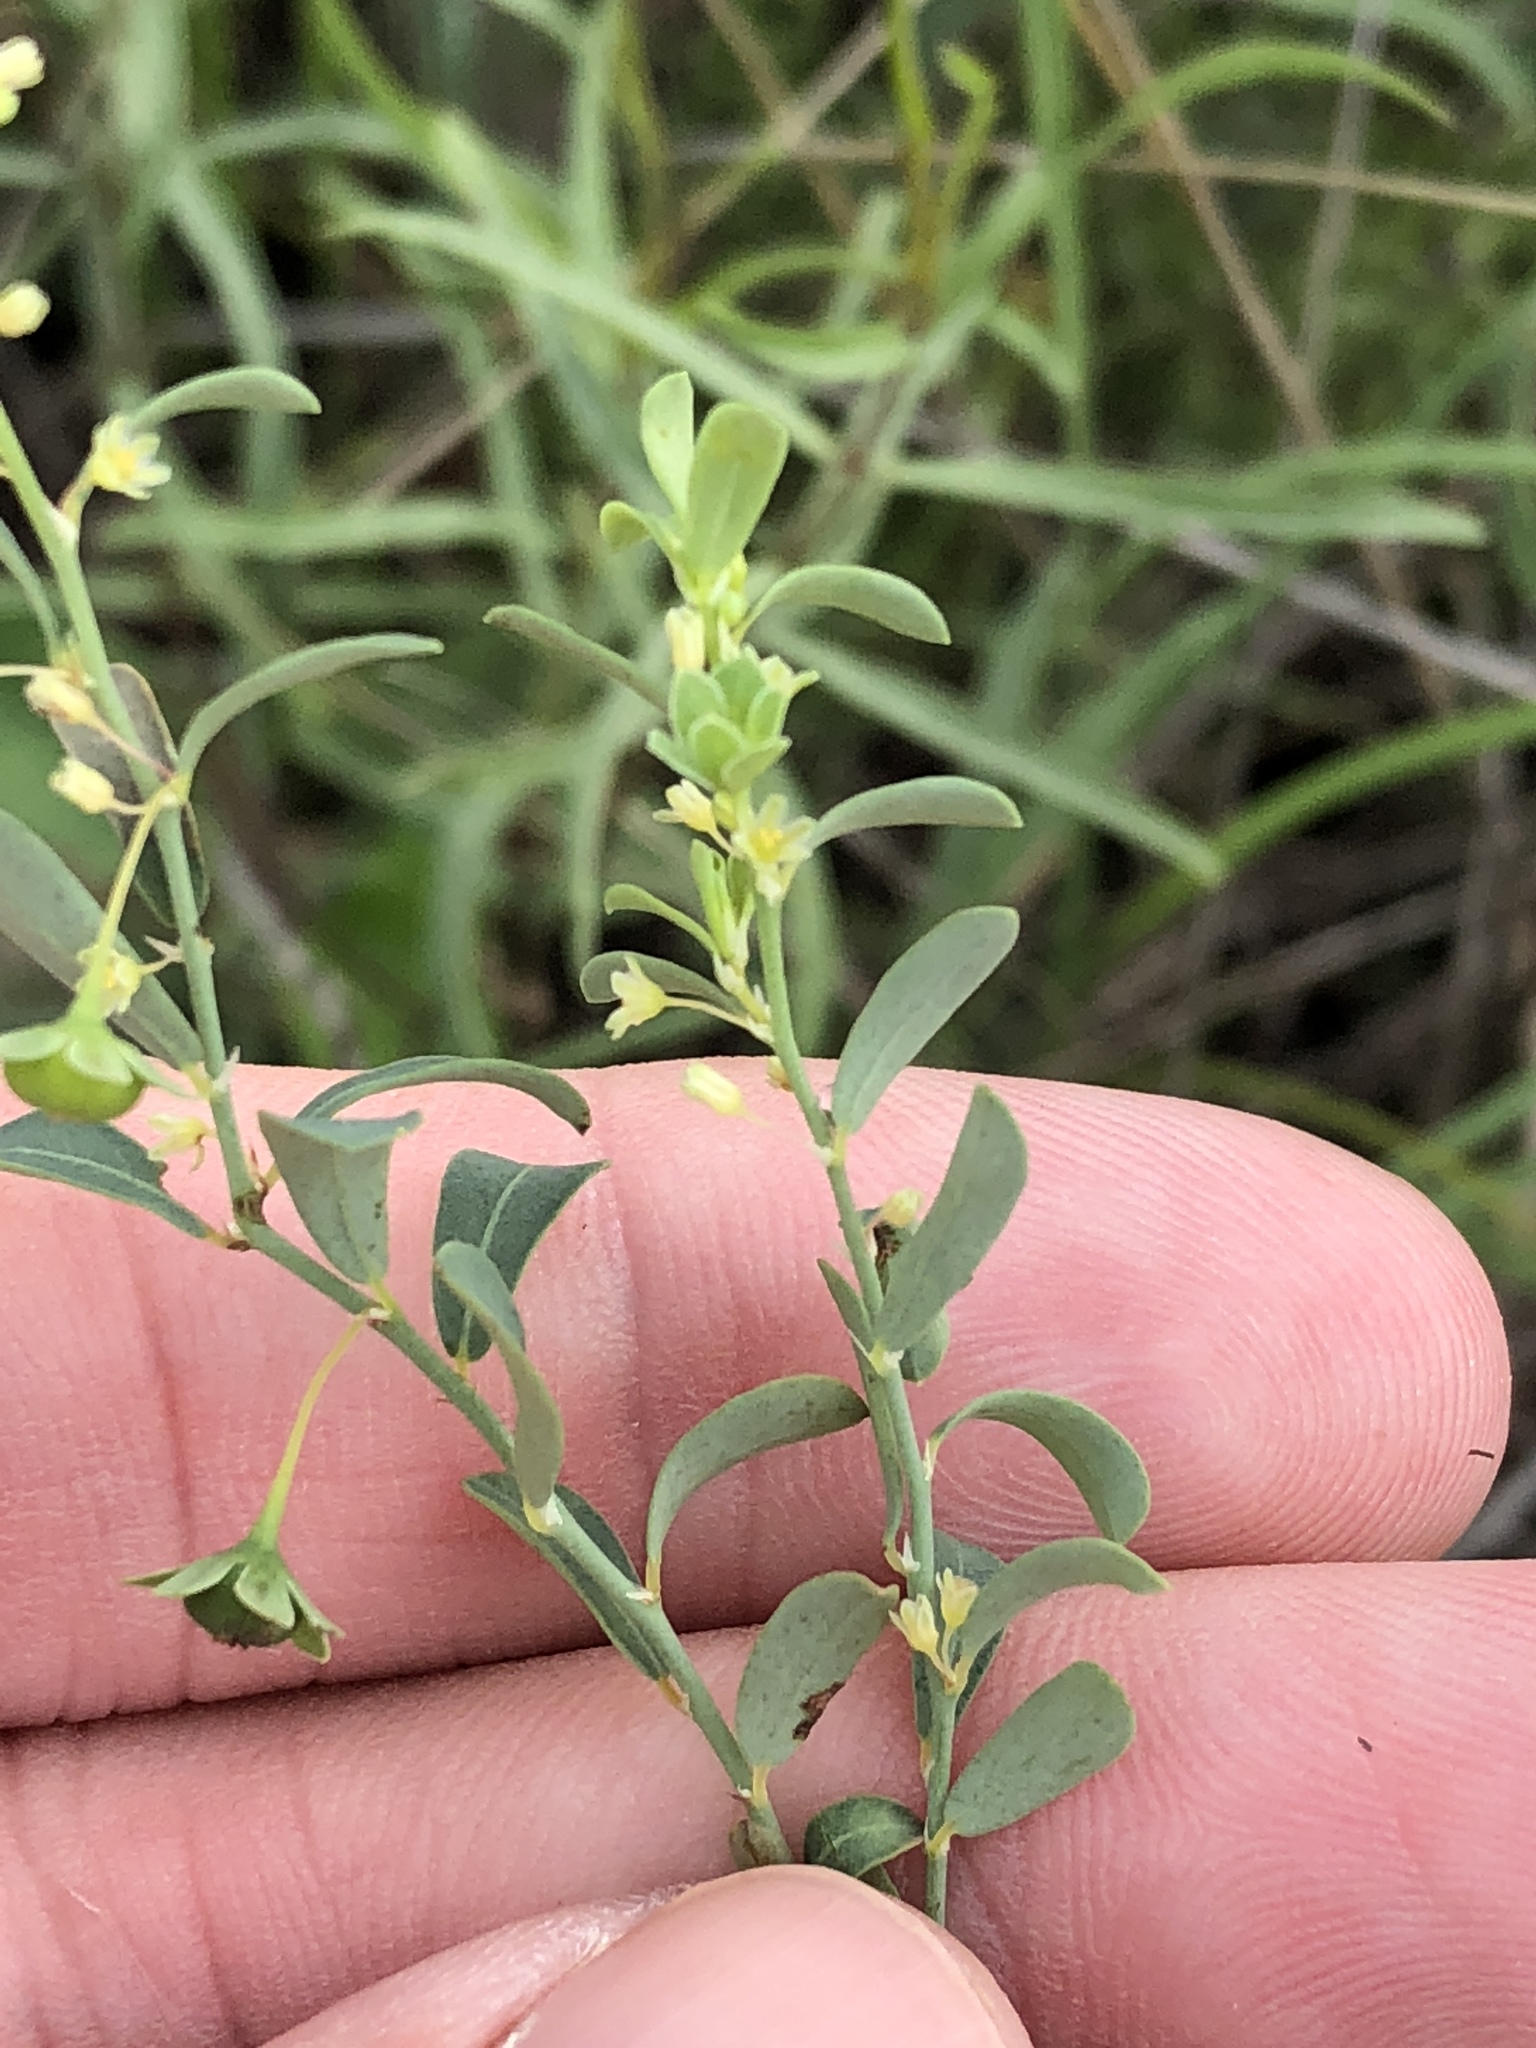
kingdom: Plantae
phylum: Tracheophyta
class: Magnoliopsida
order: Malpighiales
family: Phyllanthaceae
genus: Phyllanthus
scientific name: Phyllanthus polygonoides
